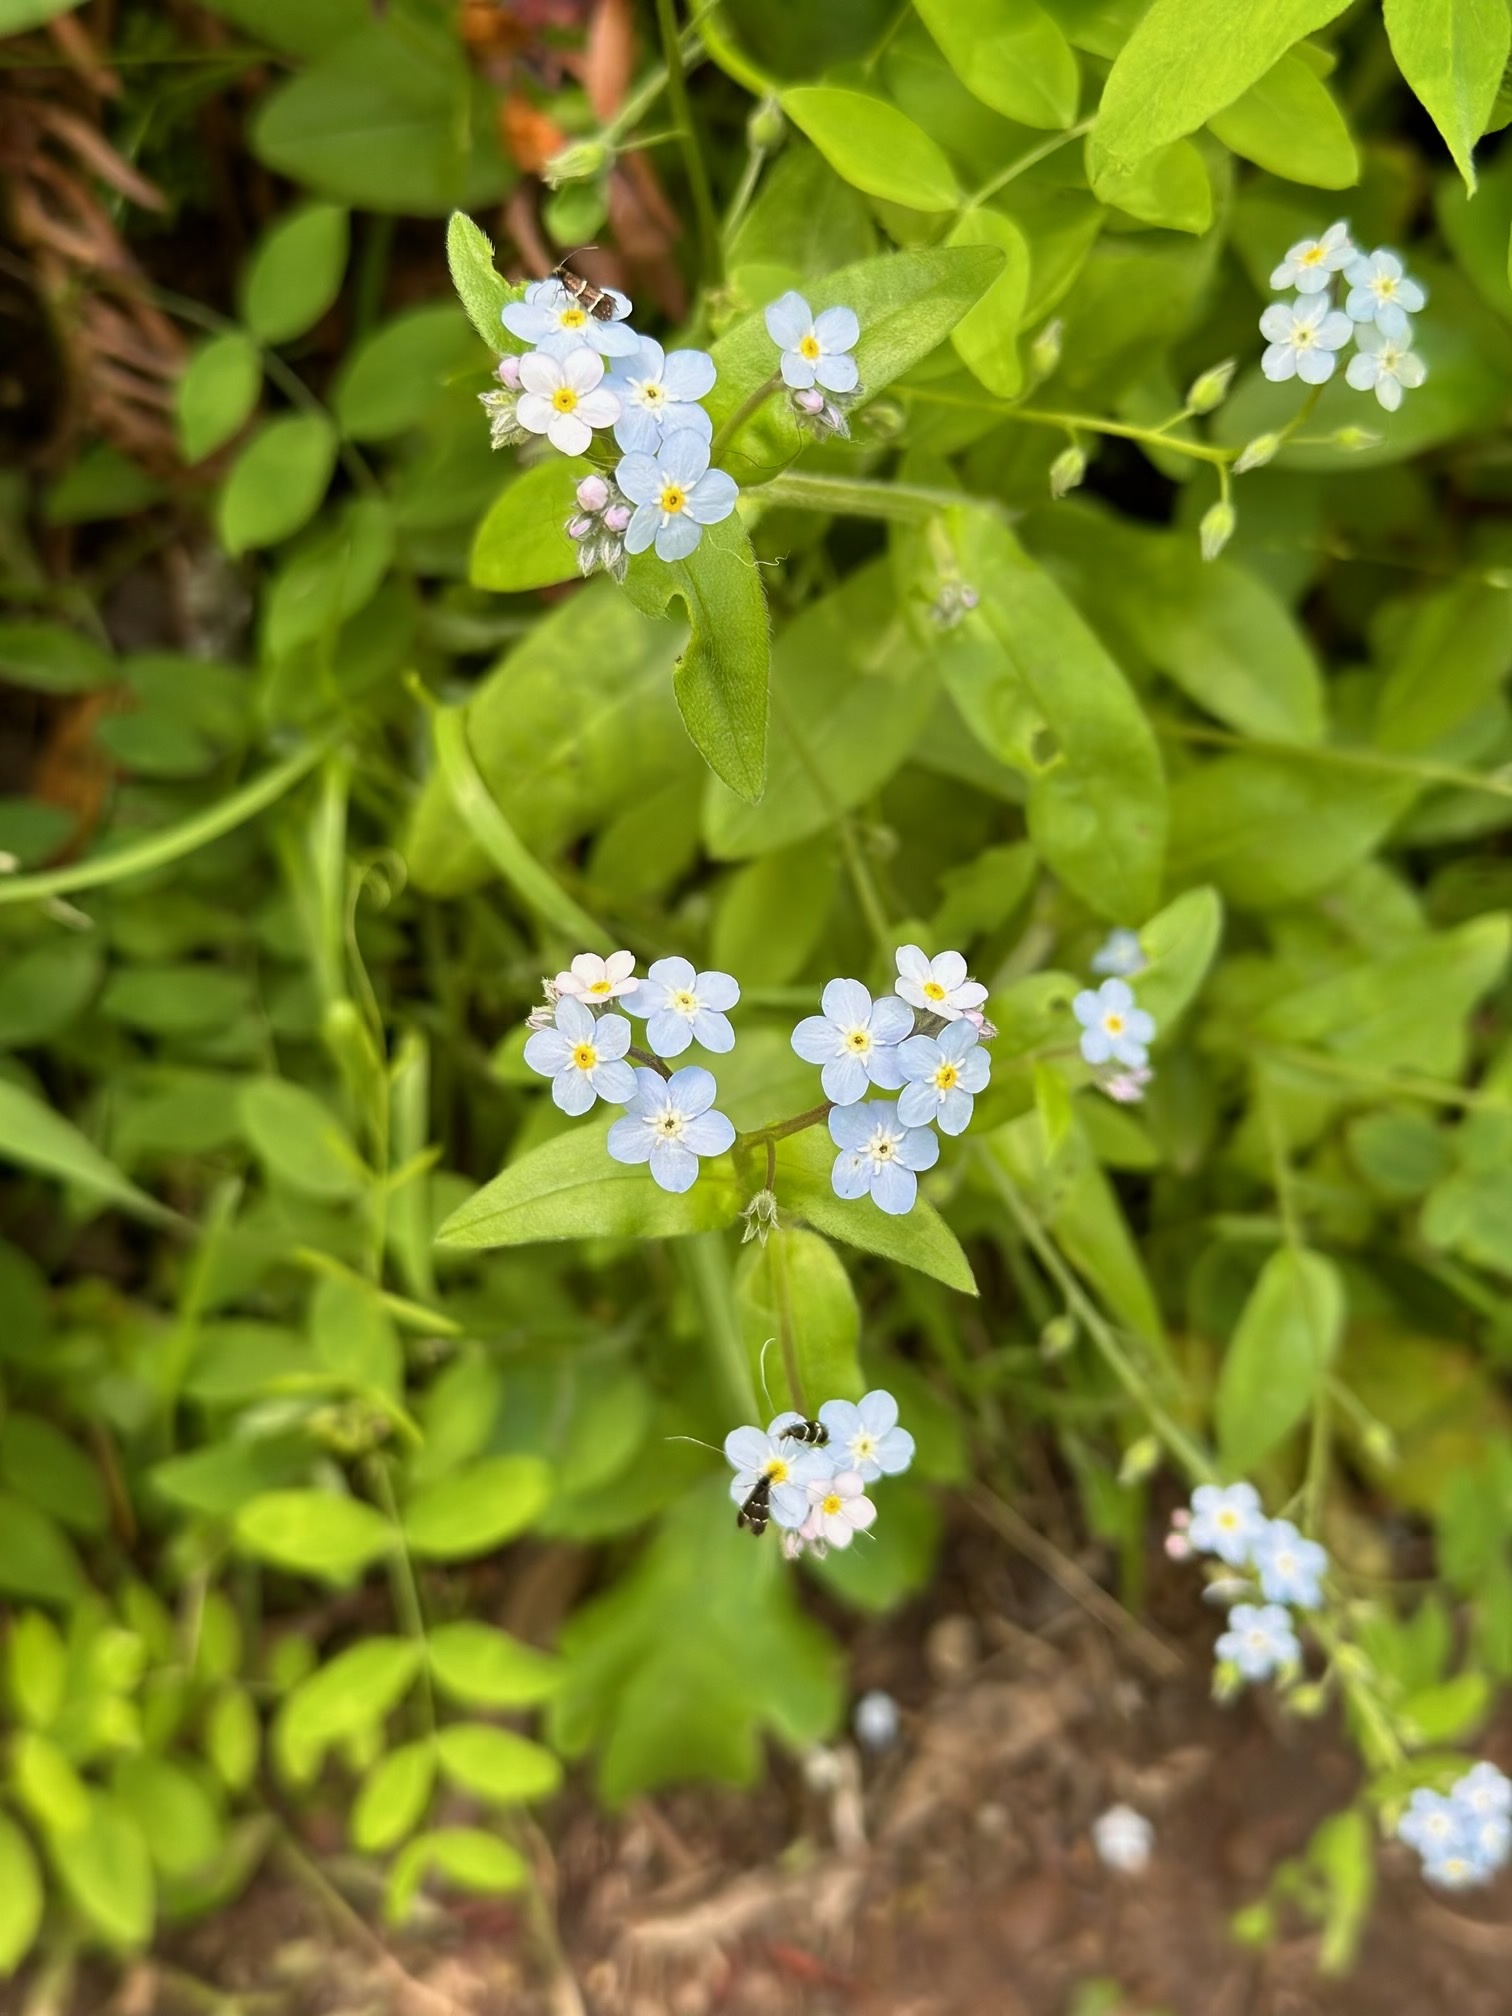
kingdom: Plantae
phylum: Tracheophyta
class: Magnoliopsida
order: Boraginales
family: Boraginaceae
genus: Myosotis
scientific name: Myosotis latifolia
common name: Broadleaf forget-me-not
